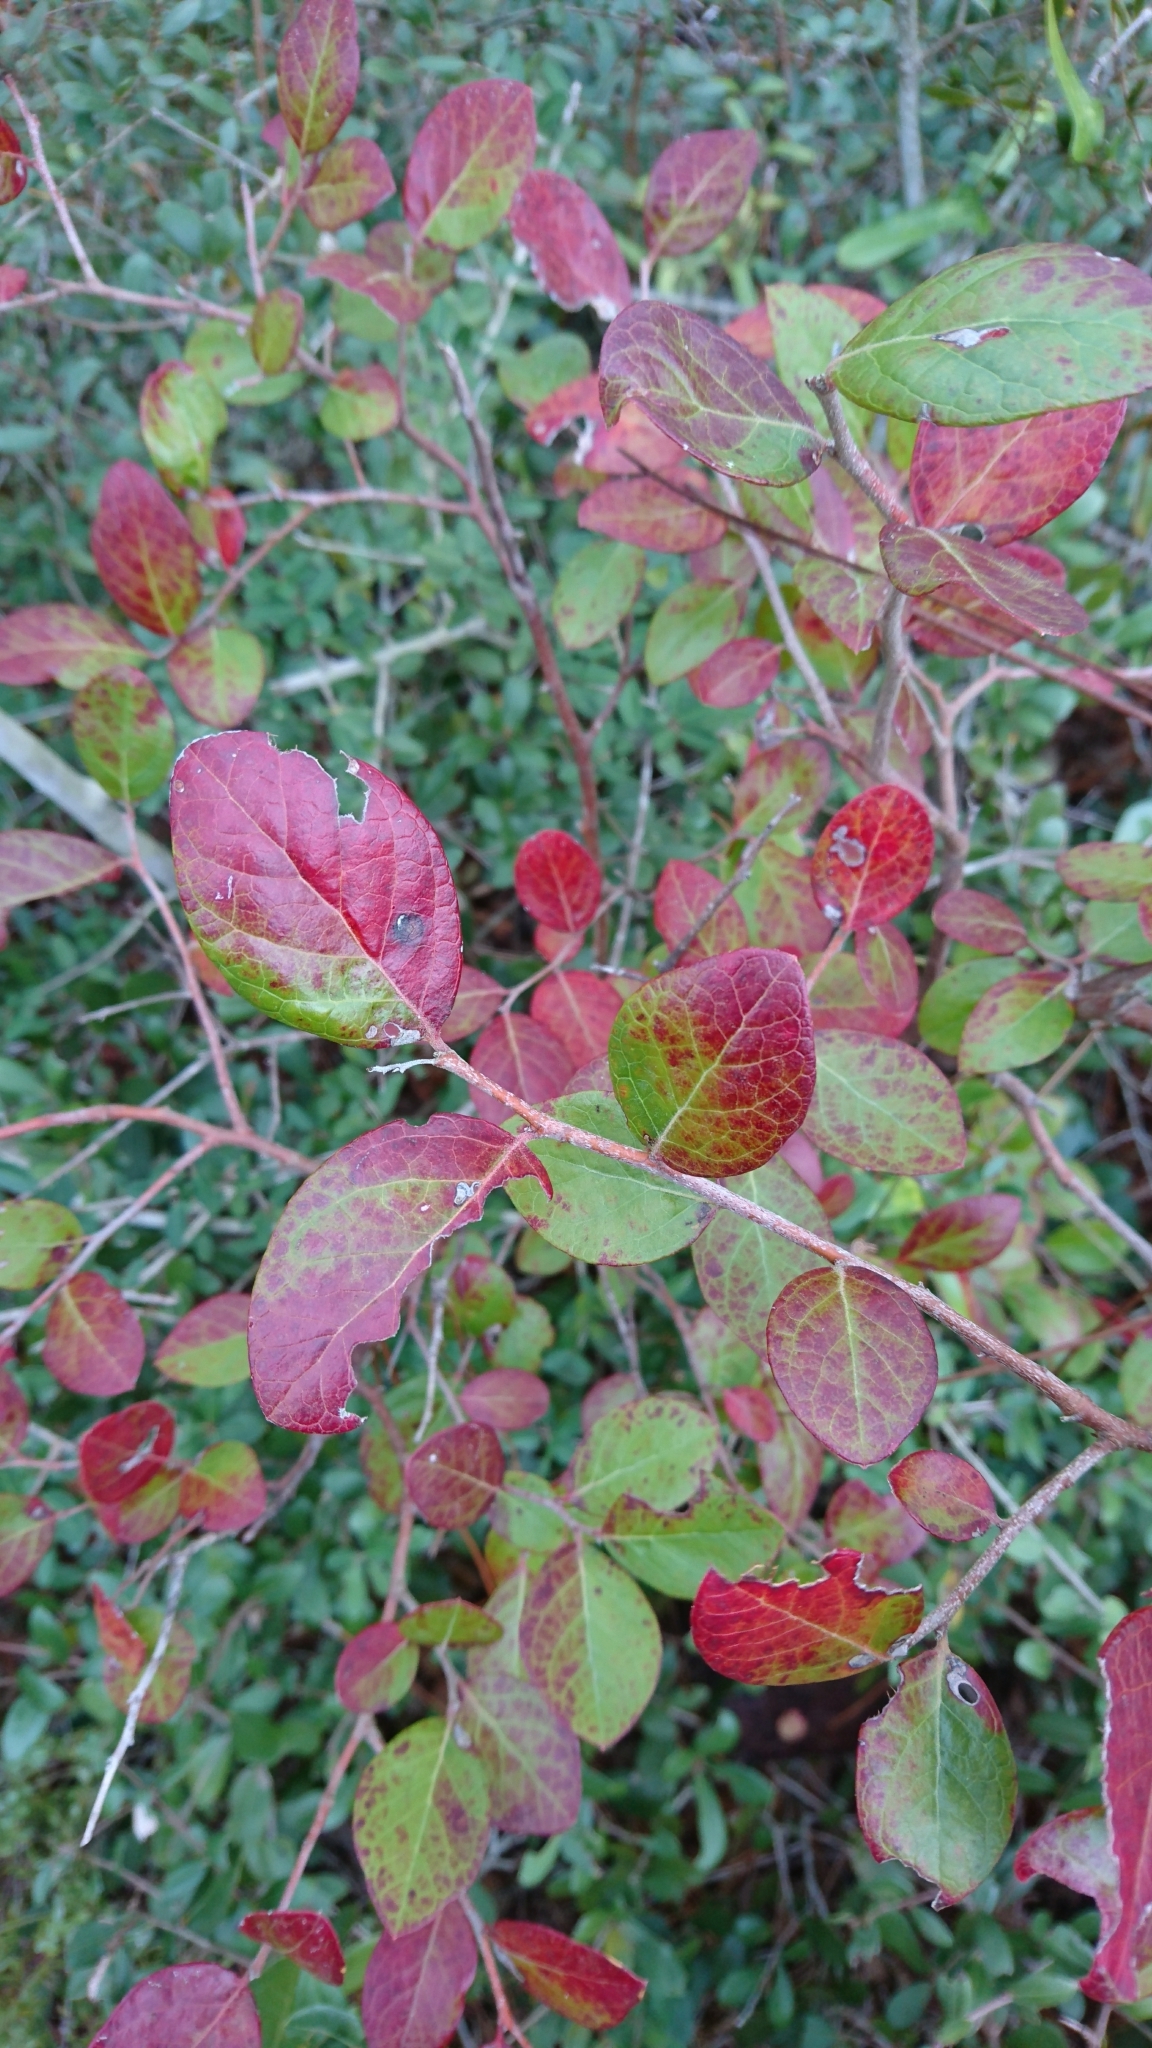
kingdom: Plantae
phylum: Tracheophyta
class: Magnoliopsida
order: Ericales
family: Ericaceae
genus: Vaccinium
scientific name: Vaccinium arboreum
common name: Farkleberry
